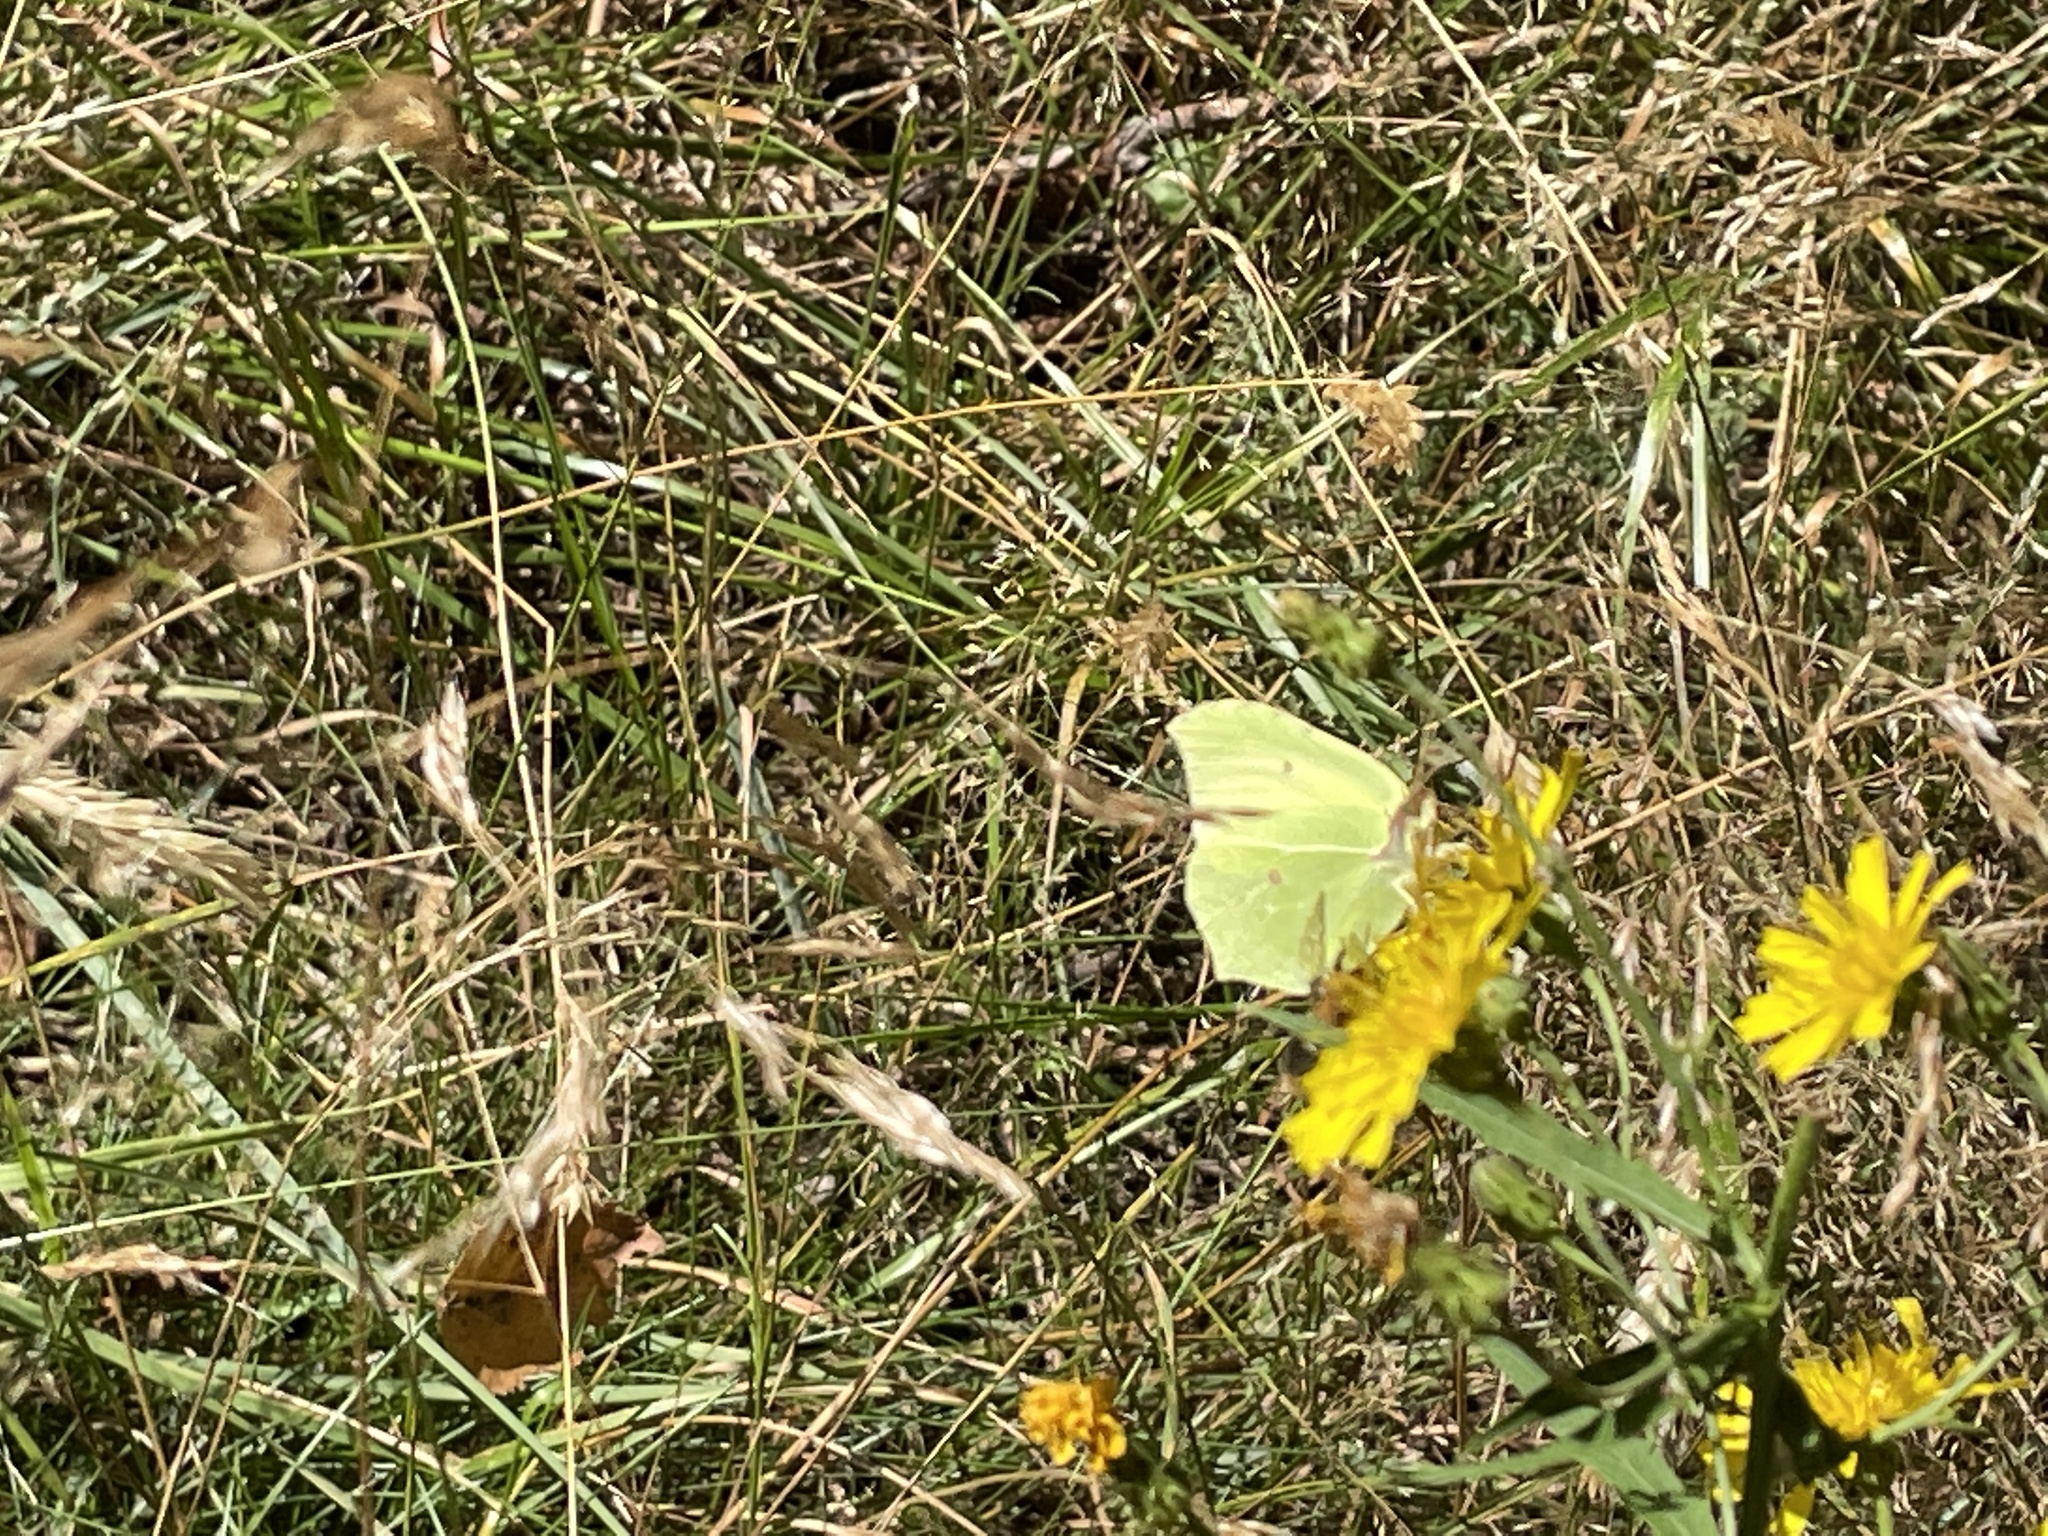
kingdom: Animalia
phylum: Arthropoda
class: Insecta
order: Lepidoptera
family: Pieridae
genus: Gonepteryx
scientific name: Gonepteryx rhamni
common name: Brimstone
